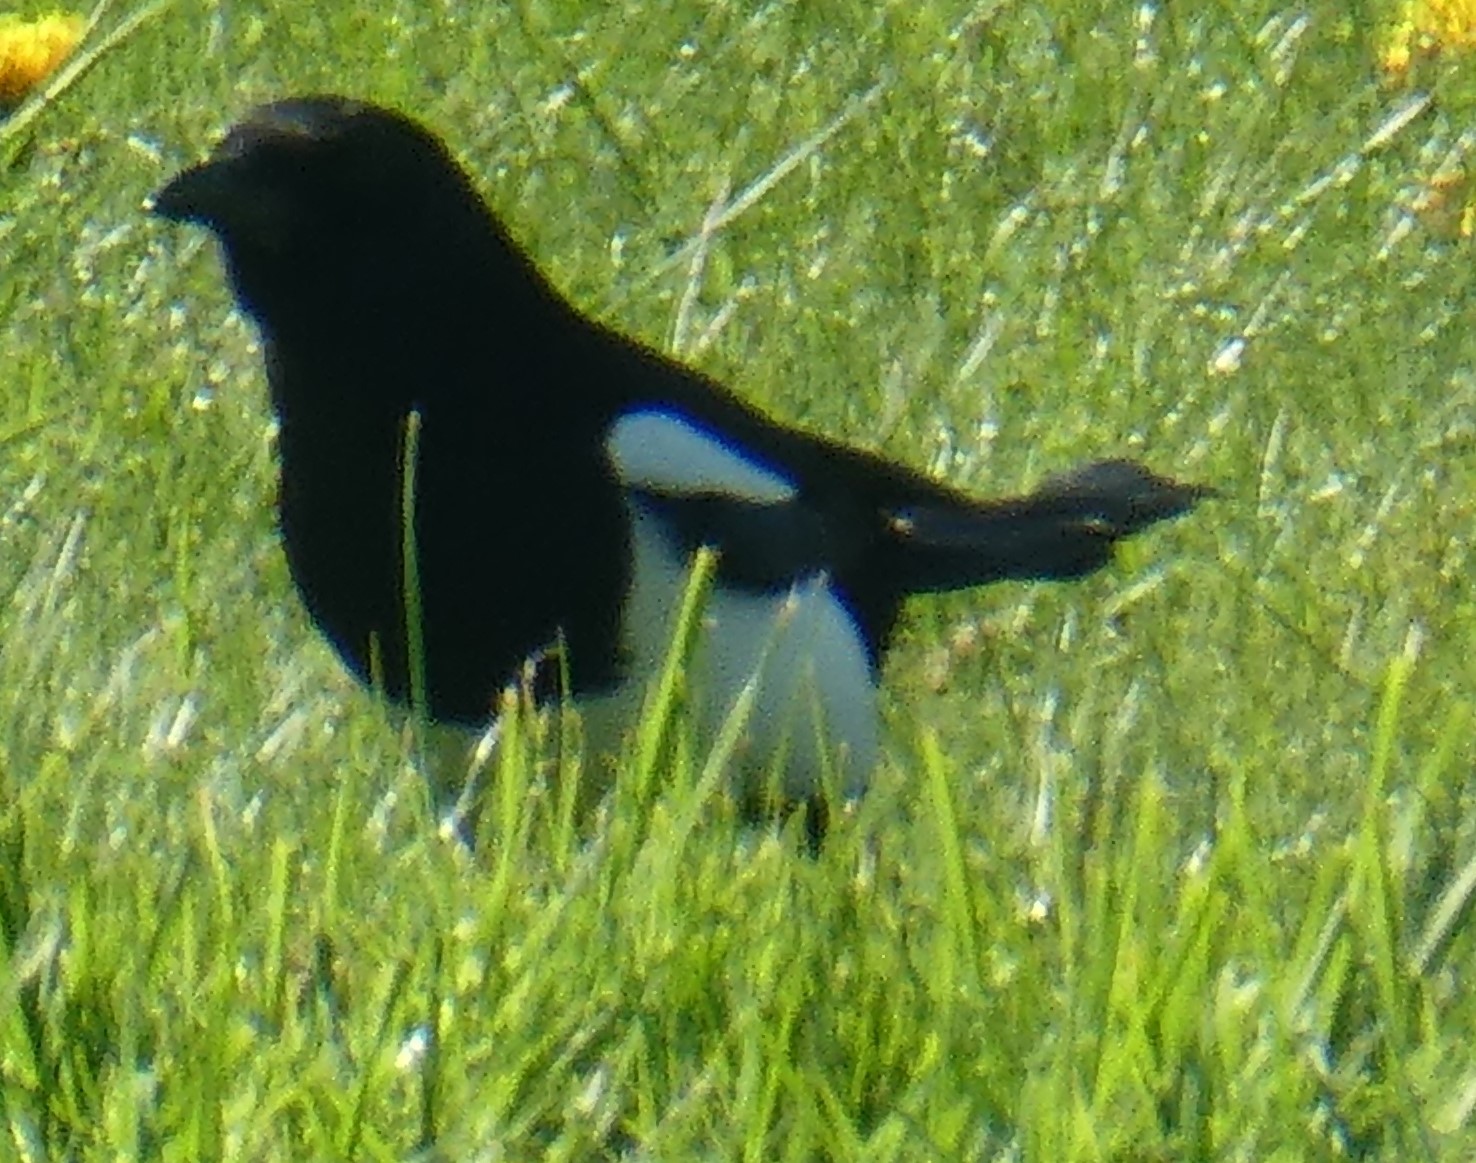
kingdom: Animalia
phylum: Chordata
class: Aves
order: Passeriformes
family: Corvidae
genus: Pica
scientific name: Pica pica
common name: Eurasian magpie
